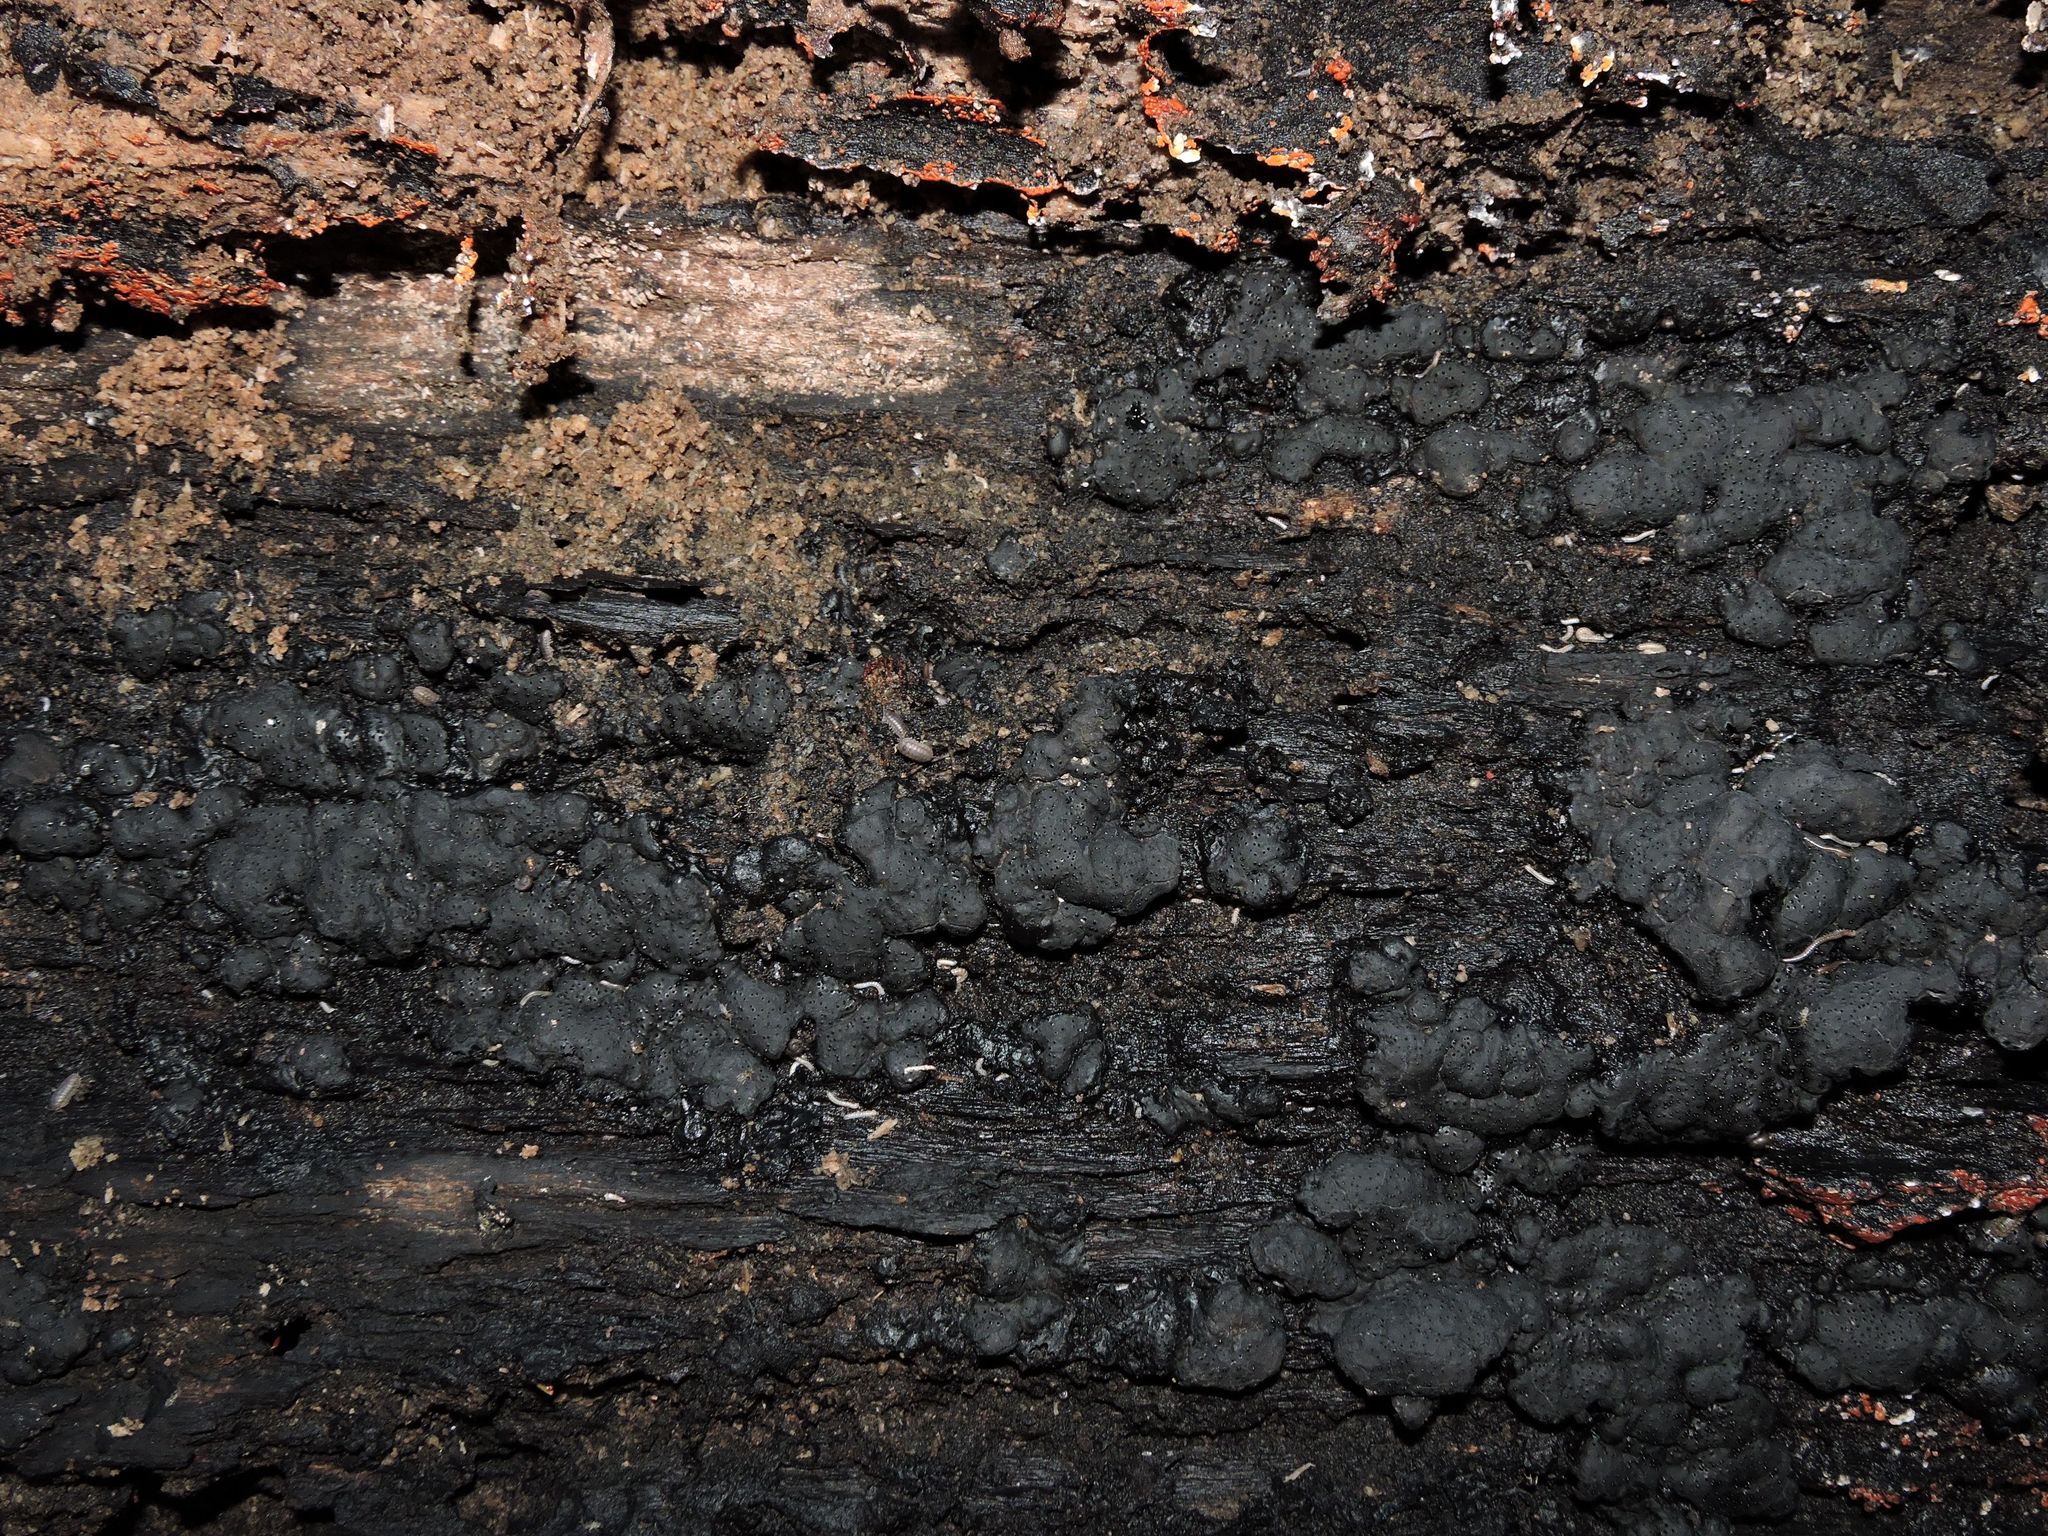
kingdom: Fungi
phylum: Ascomycota
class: Sordariomycetes
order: Xylariales
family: Xylariaceae
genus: Kretzschmaria
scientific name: Kretzschmaria deusta
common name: Brittle cinder
